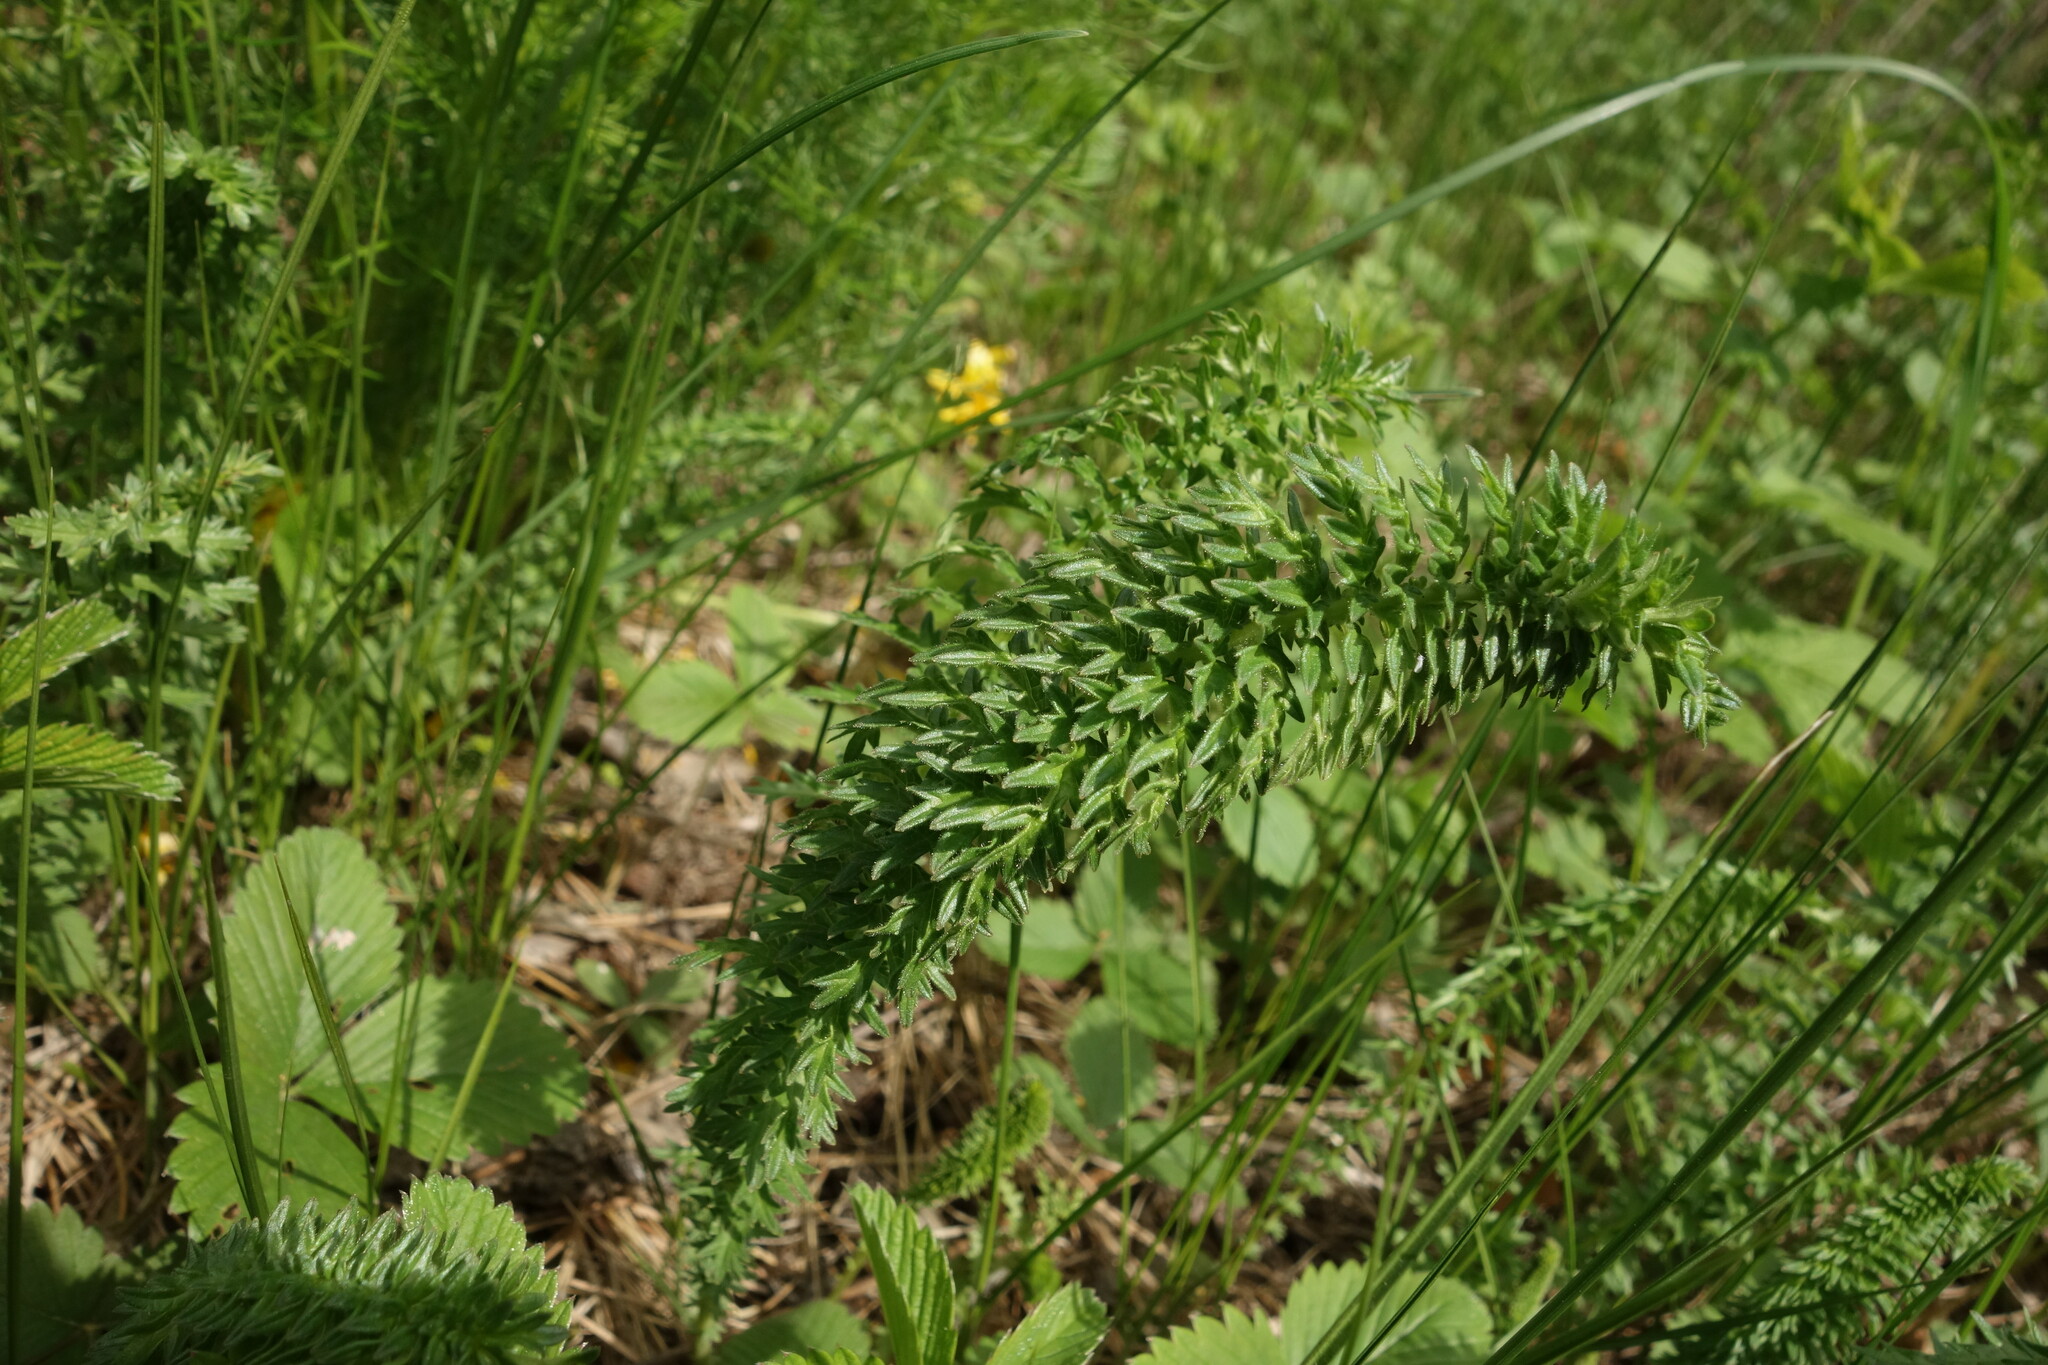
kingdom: Plantae
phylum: Tracheophyta
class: Magnoliopsida
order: Rosales
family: Rosaceae
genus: Filipendula
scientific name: Filipendula vulgaris
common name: Dropwort
